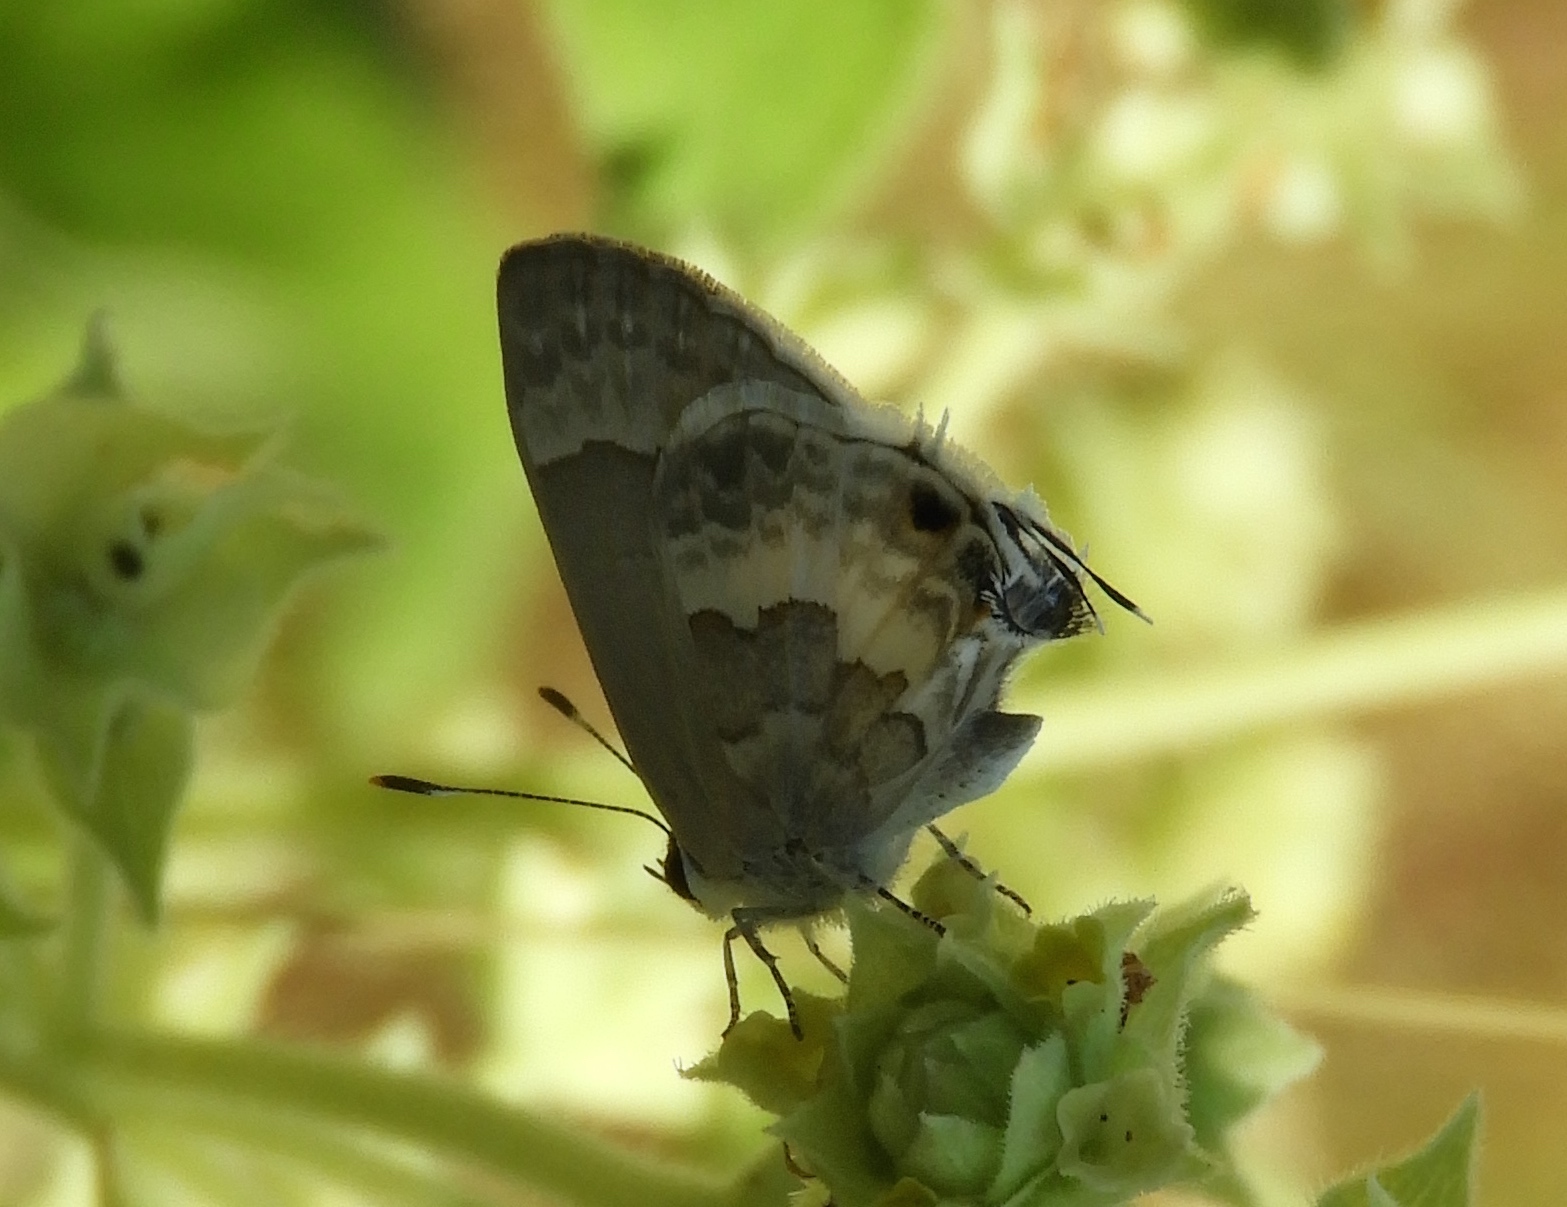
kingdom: Animalia
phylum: Arthropoda
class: Insecta
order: Lepidoptera
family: Lycaenidae
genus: Strymon
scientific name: Strymon albata
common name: White scrub-hairstreak
